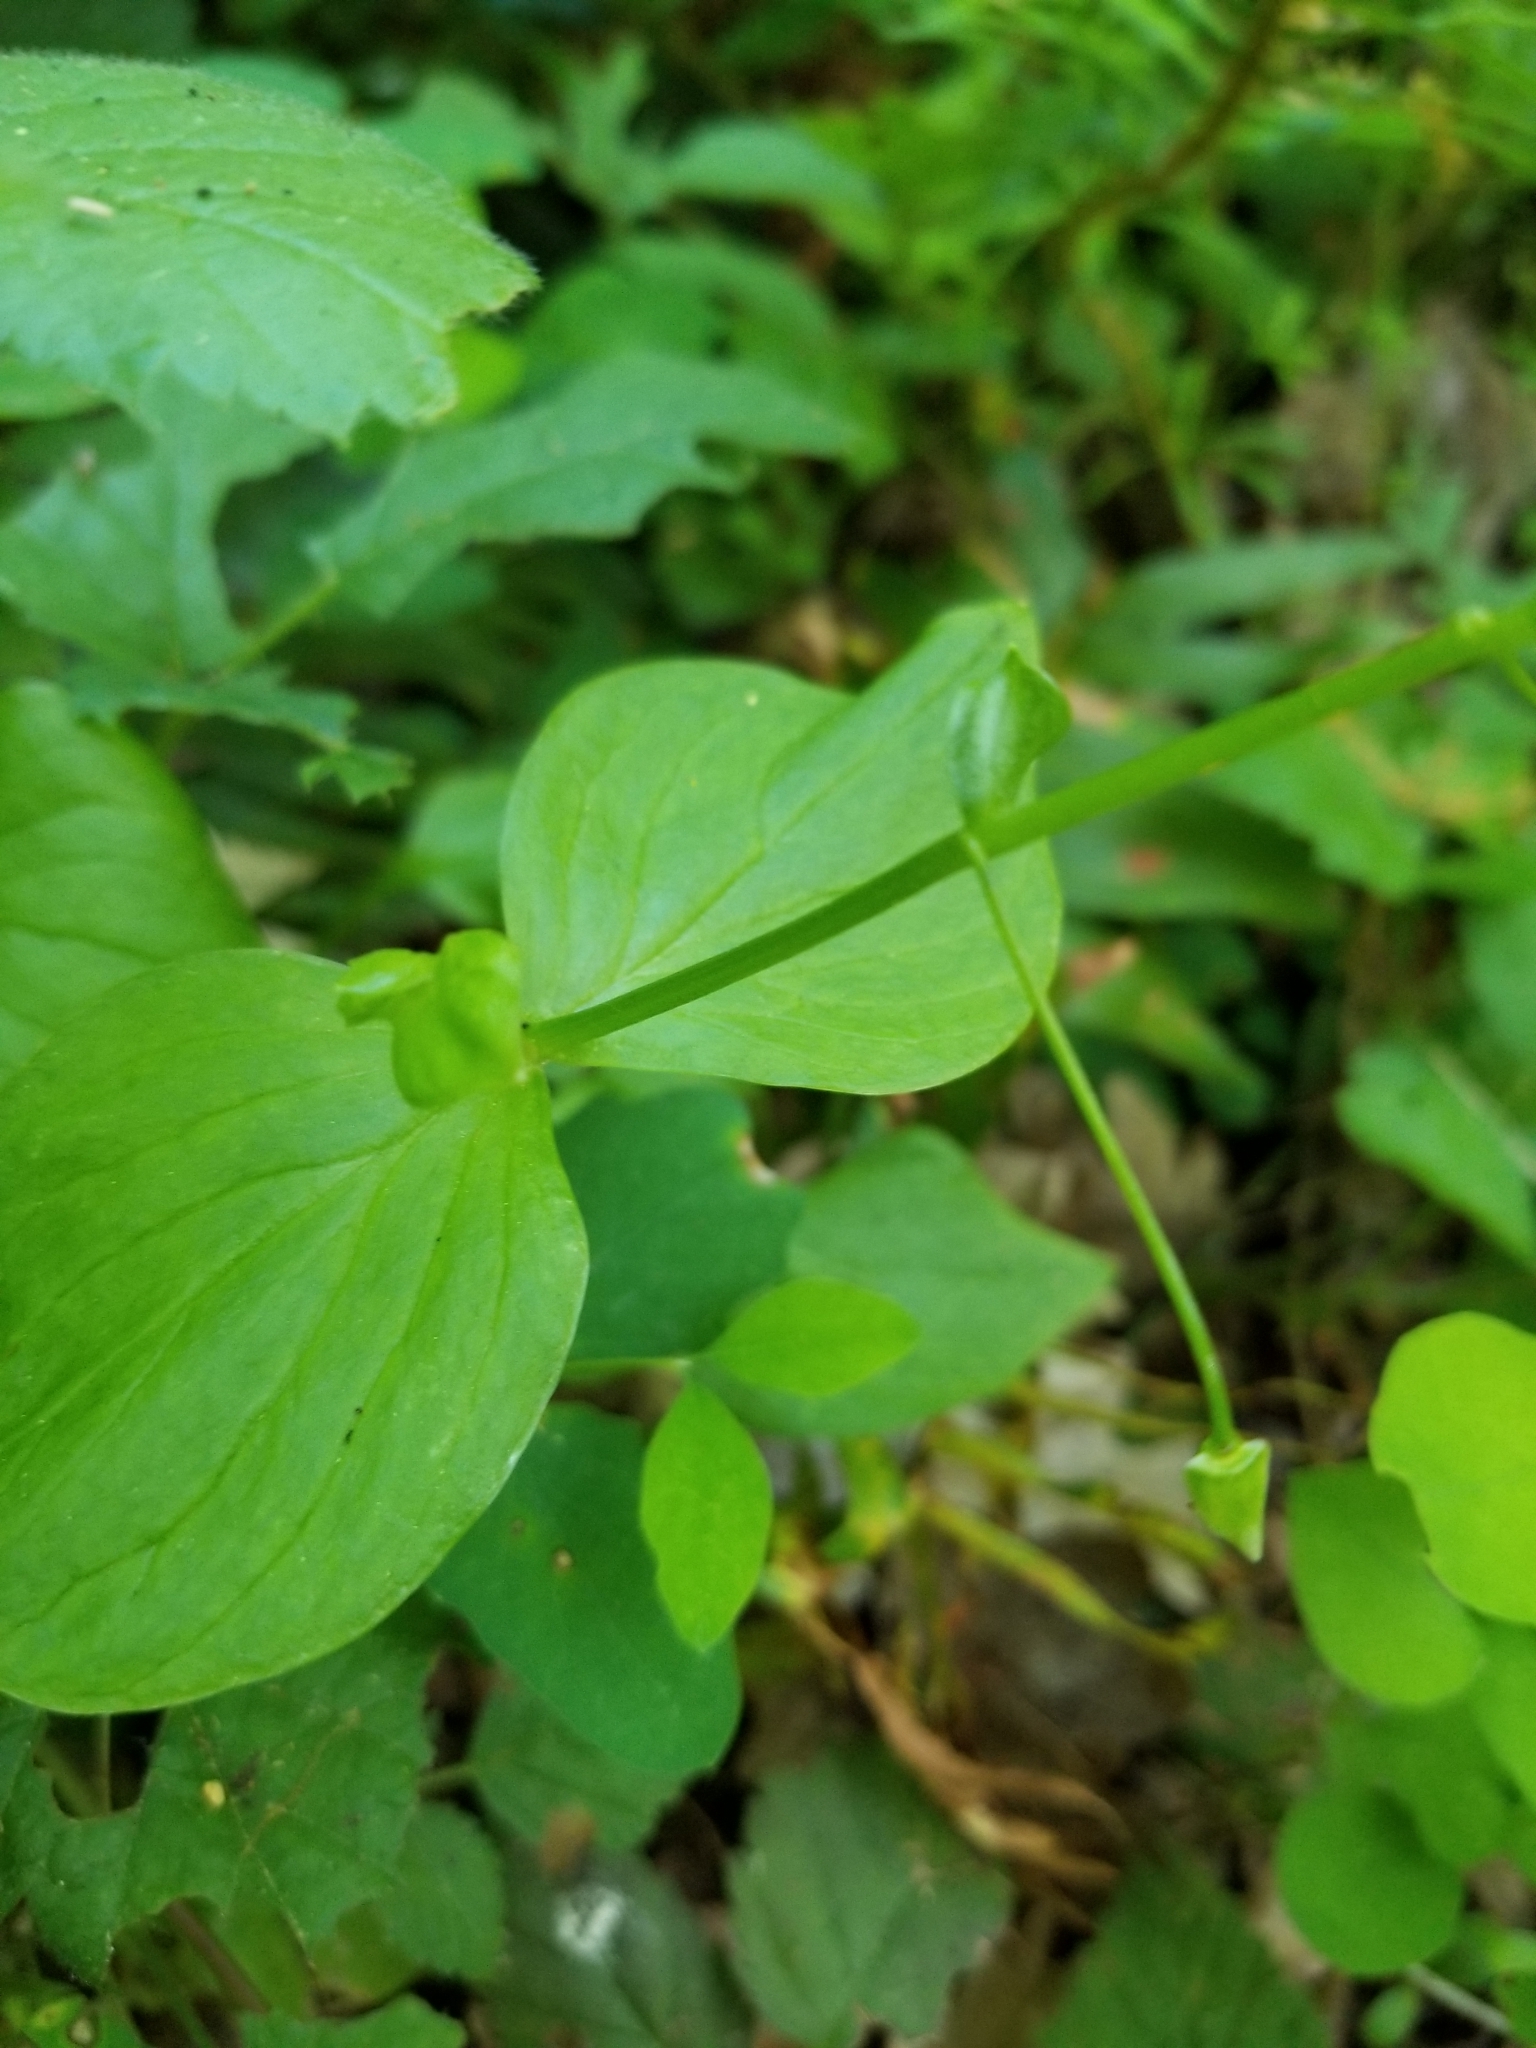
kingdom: Plantae
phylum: Tracheophyta
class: Magnoliopsida
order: Caryophyllales
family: Montiaceae
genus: Claytonia
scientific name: Claytonia sibirica
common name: Pink purslane
